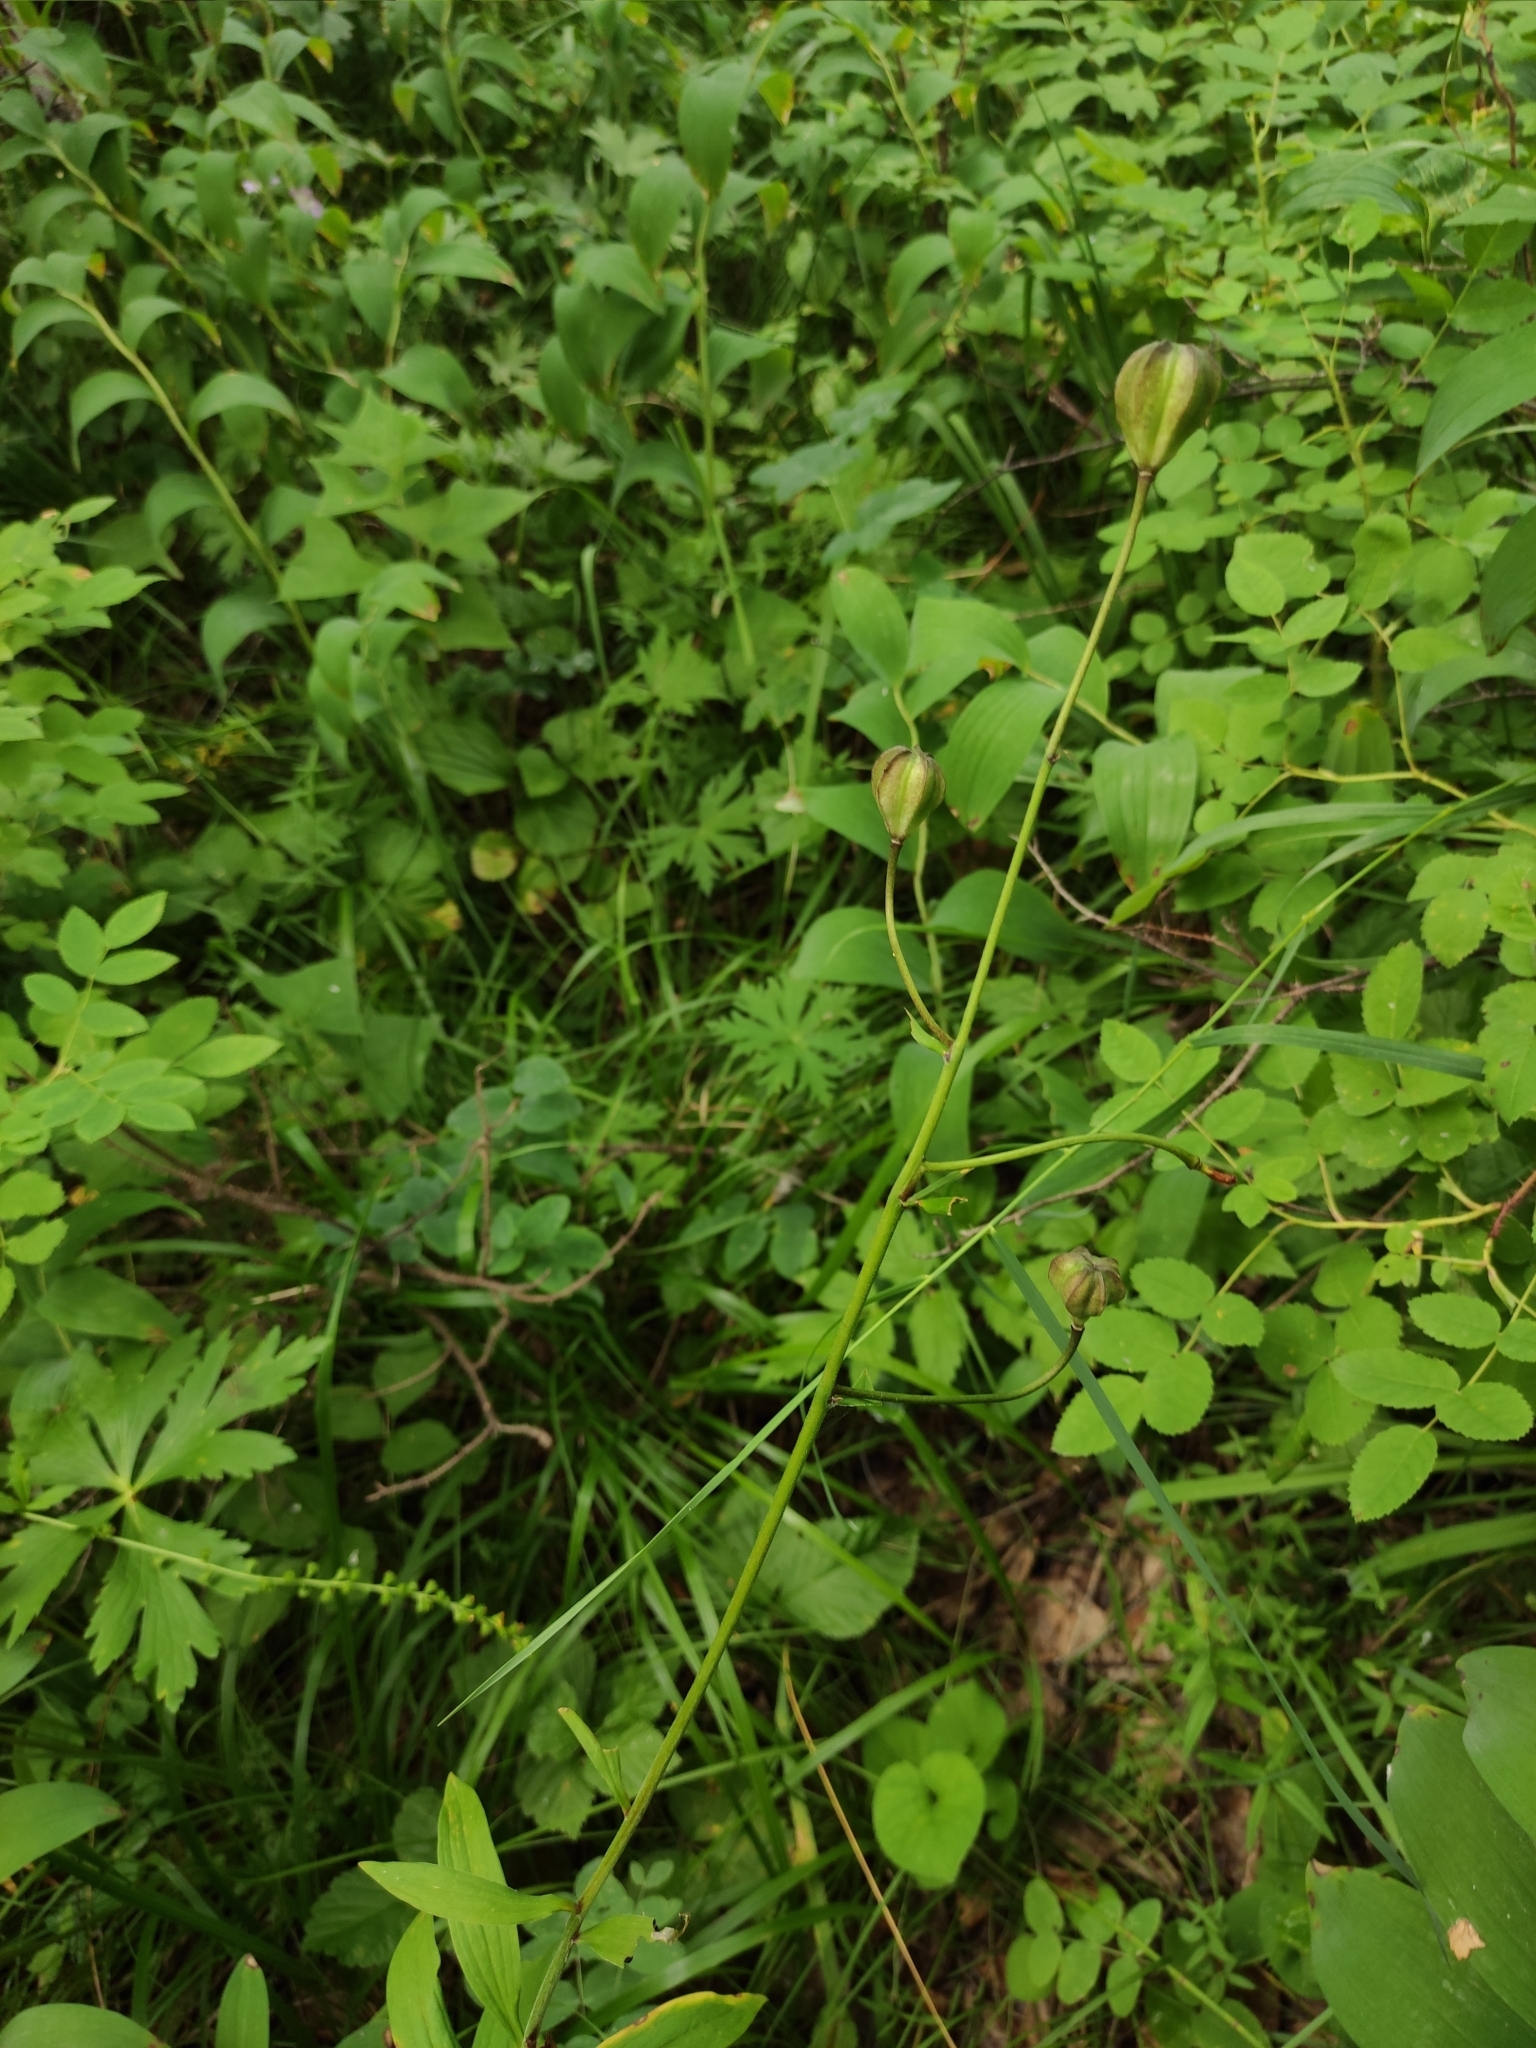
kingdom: Plantae
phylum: Tracheophyta
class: Liliopsida
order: Liliales
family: Liliaceae
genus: Lilium
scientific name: Lilium martagon
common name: Martagon lily
